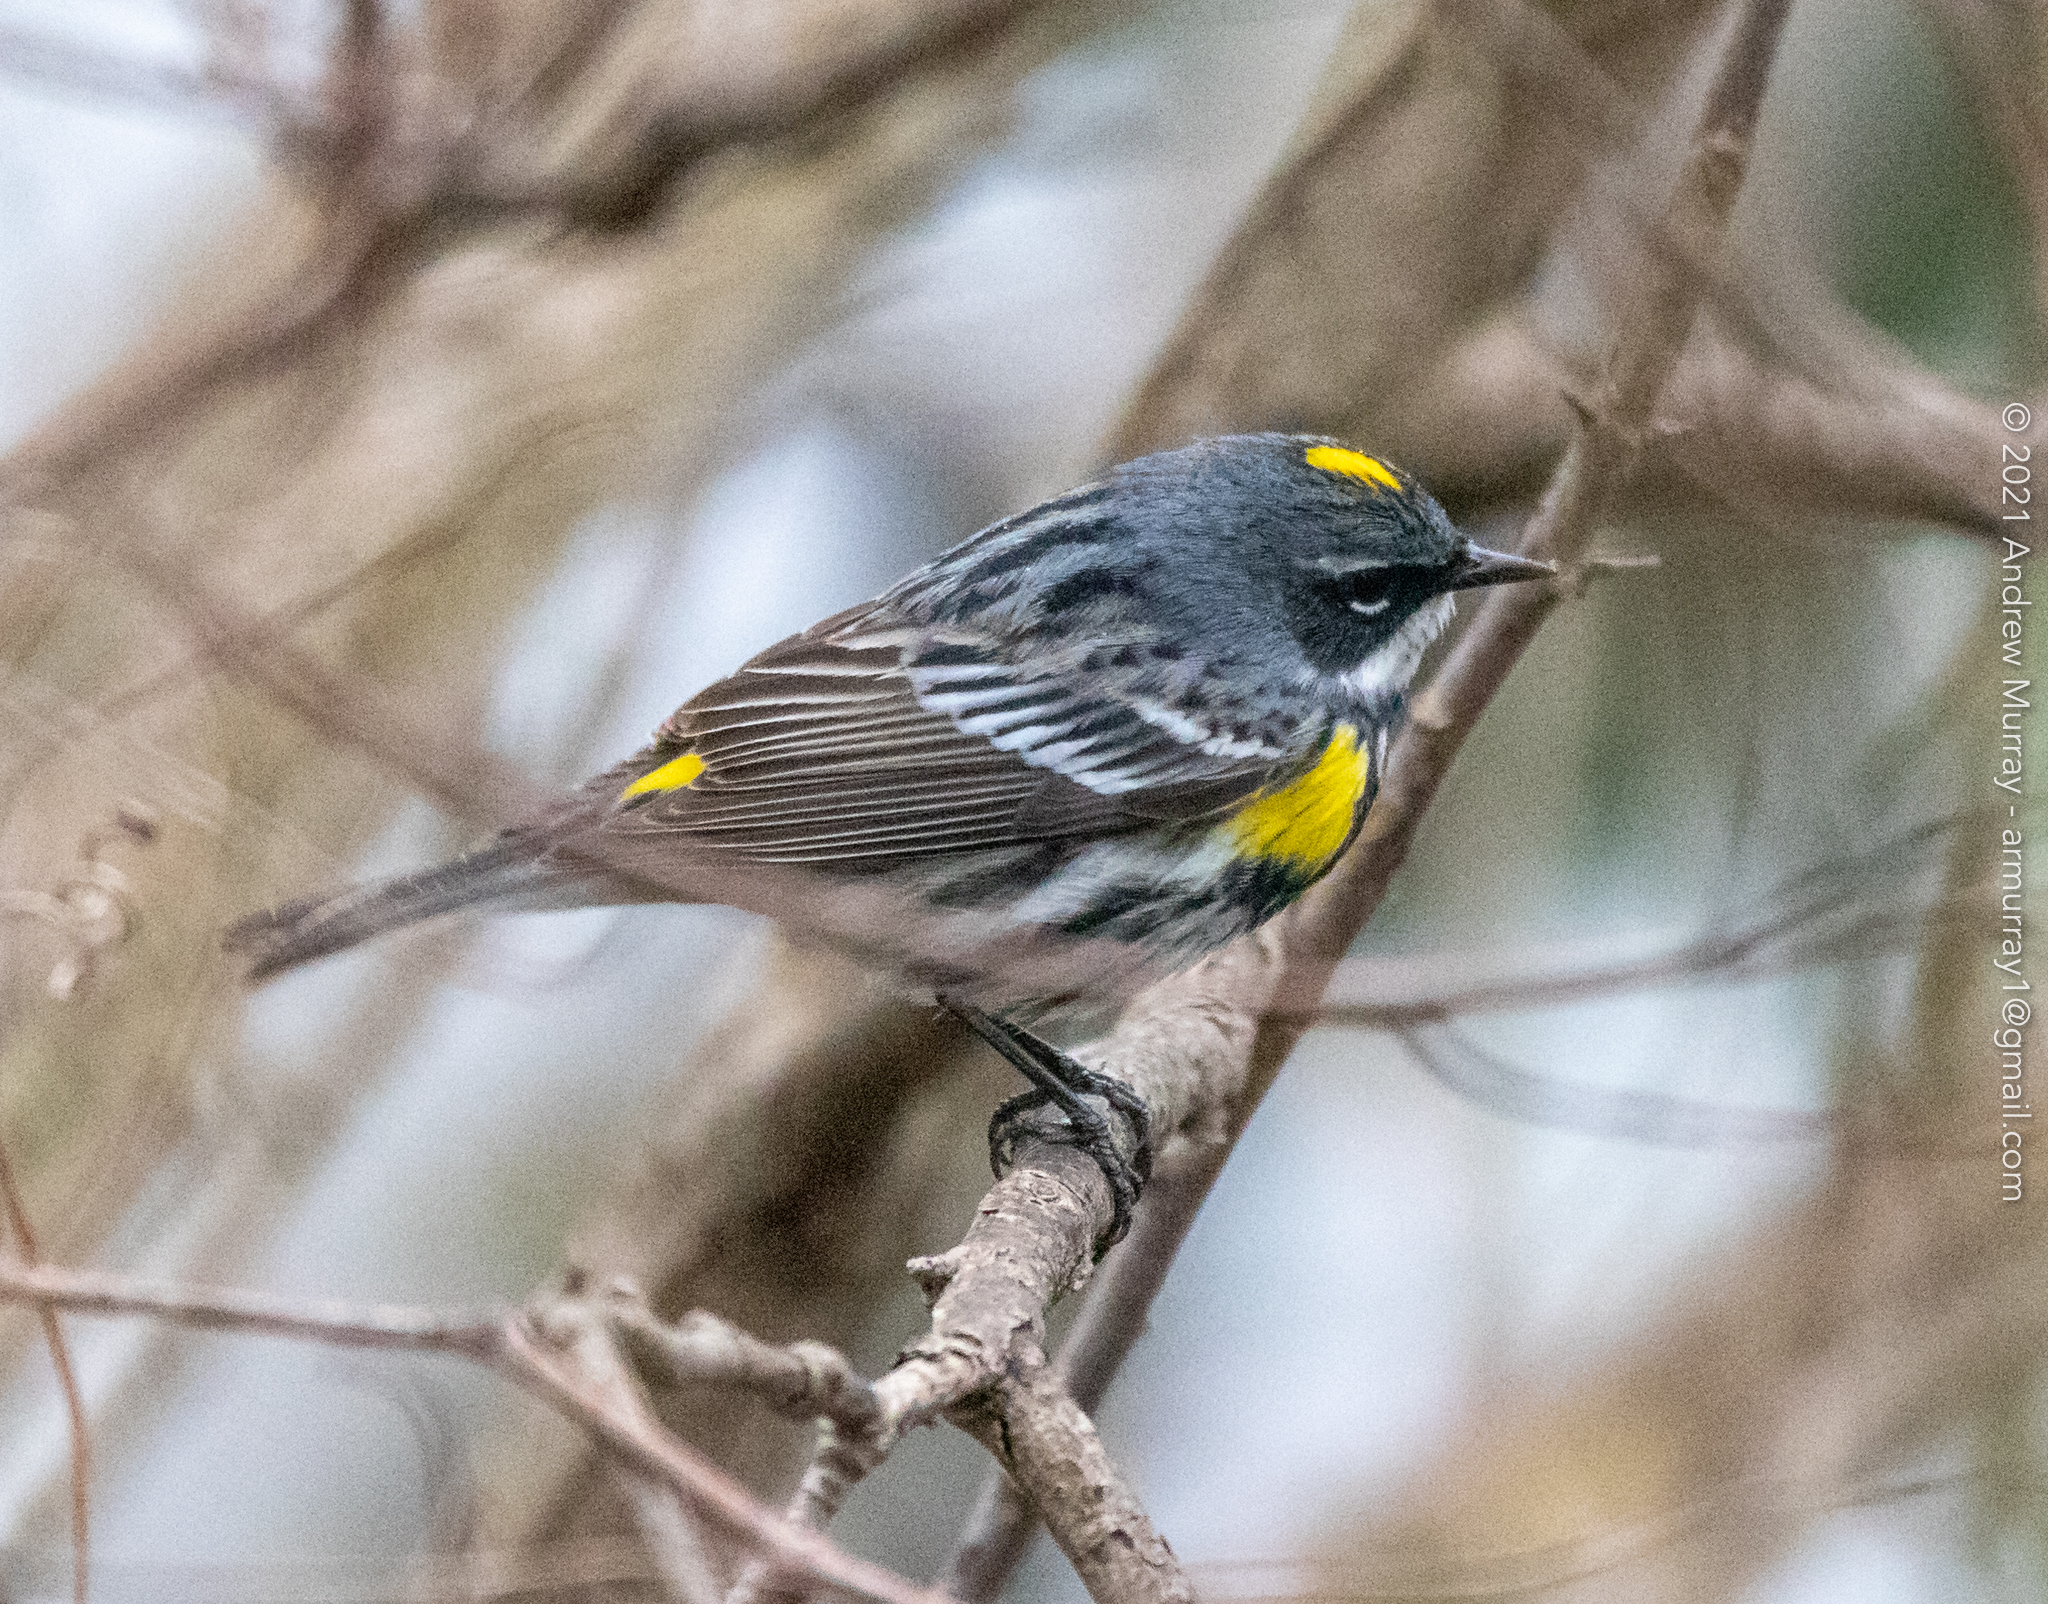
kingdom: Animalia
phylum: Chordata
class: Aves
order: Passeriformes
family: Parulidae
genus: Setophaga
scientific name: Setophaga coronata
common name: Myrtle warbler
